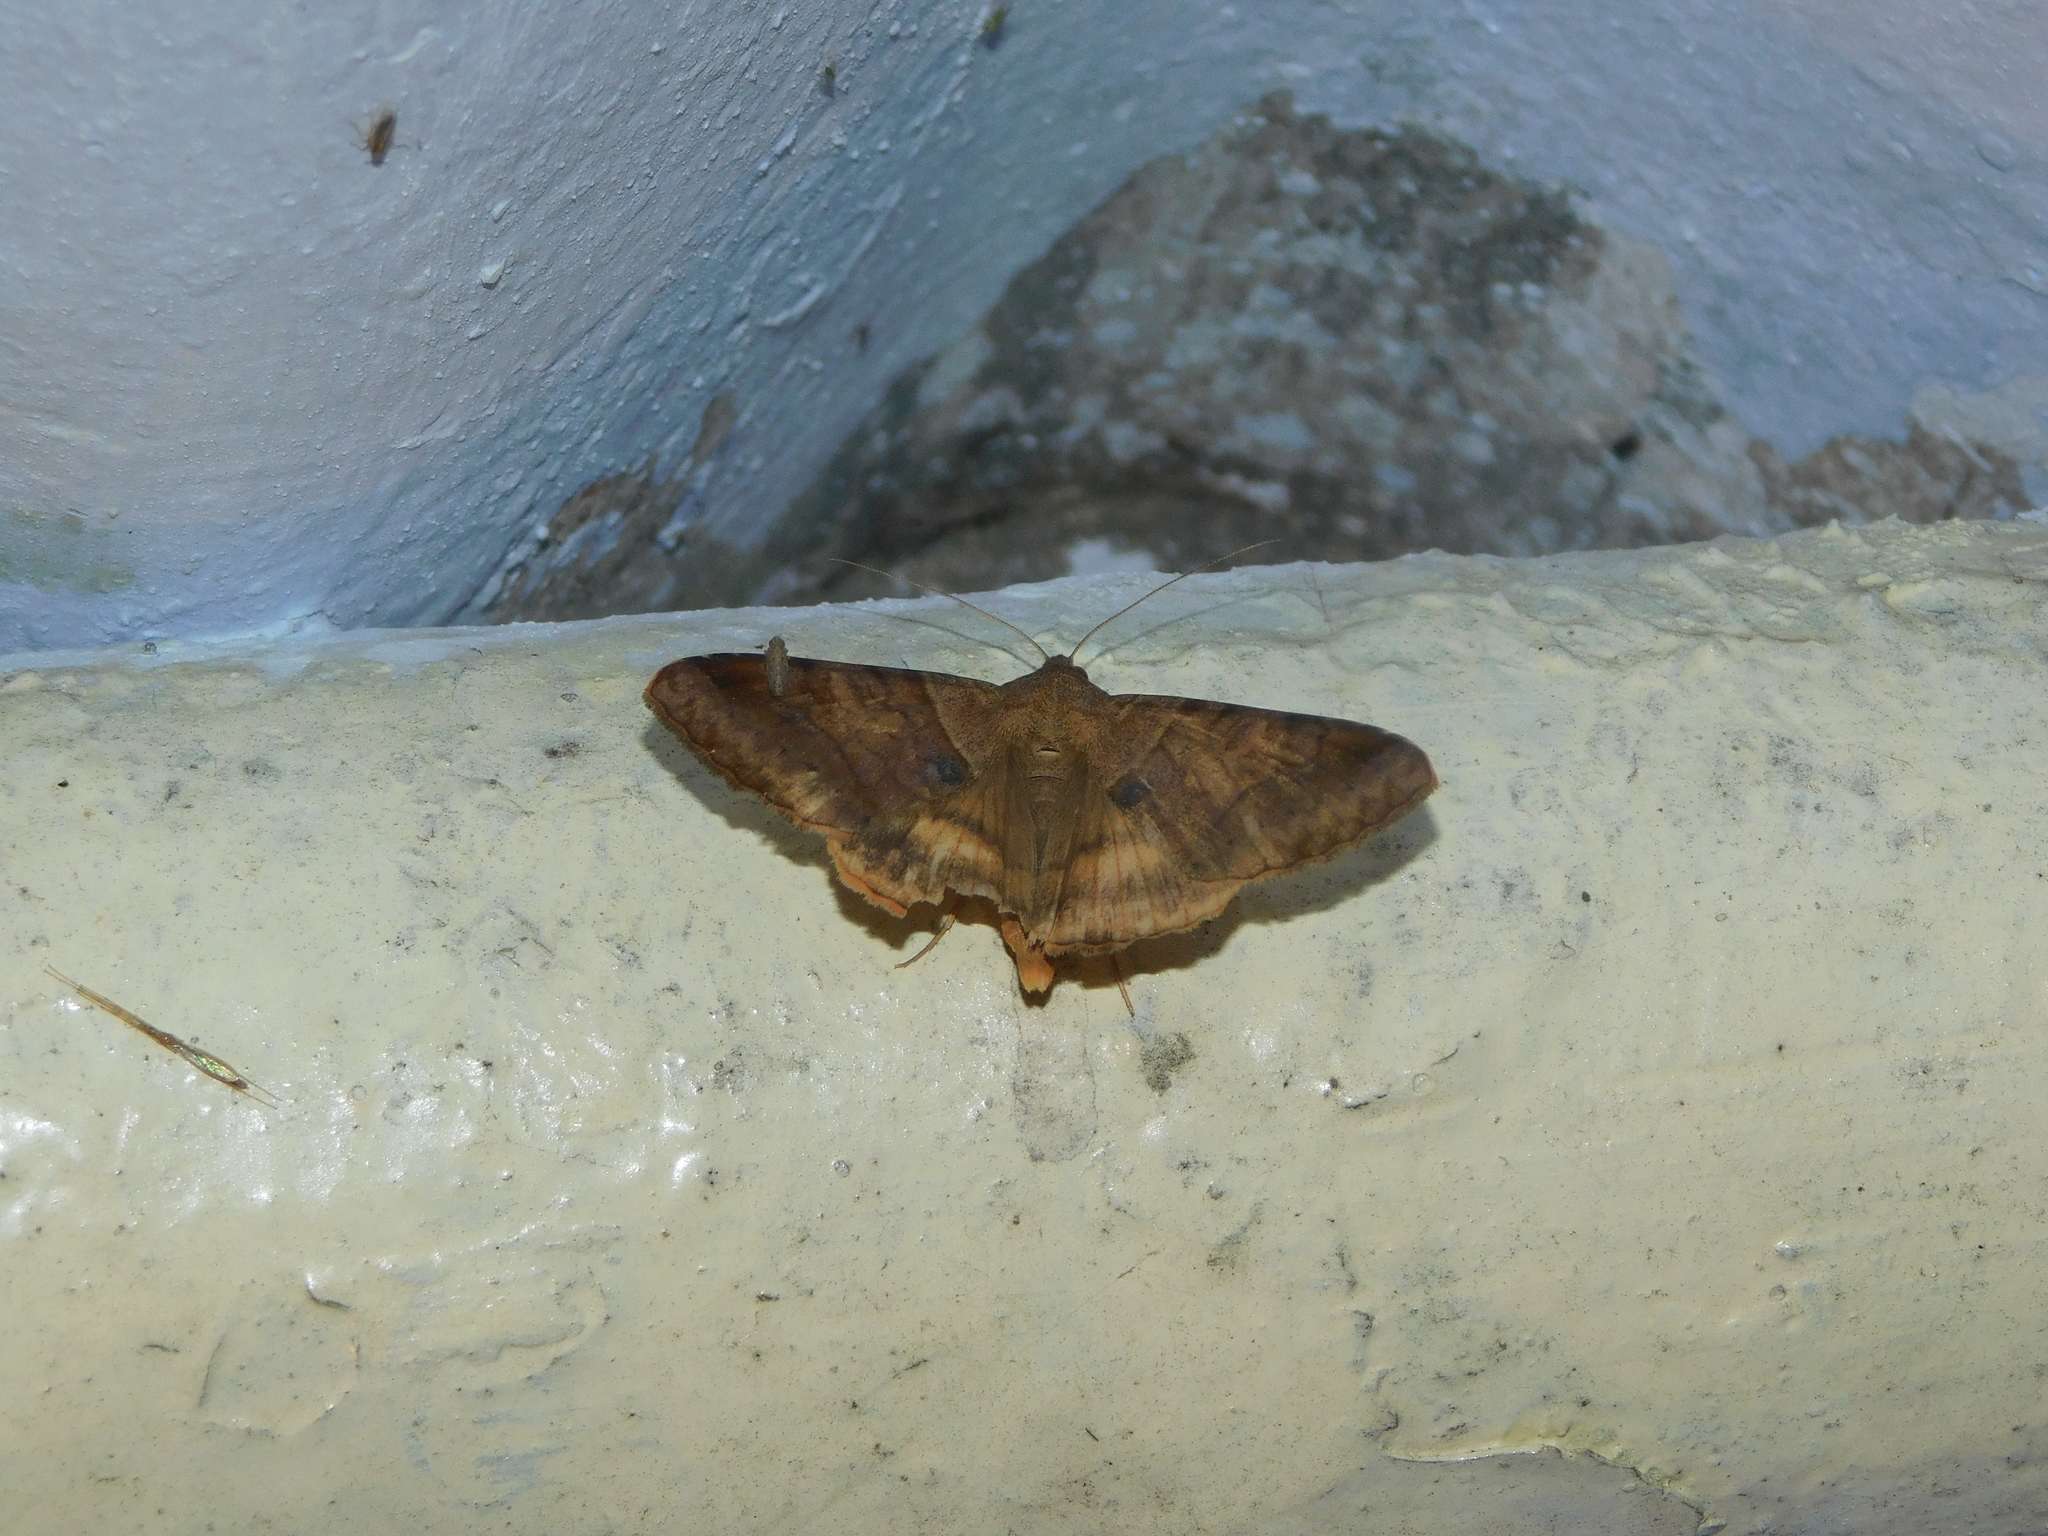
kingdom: Animalia
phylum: Arthropoda
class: Insecta
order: Lepidoptera
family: Erebidae
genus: Mocis
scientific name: Mocis undata
